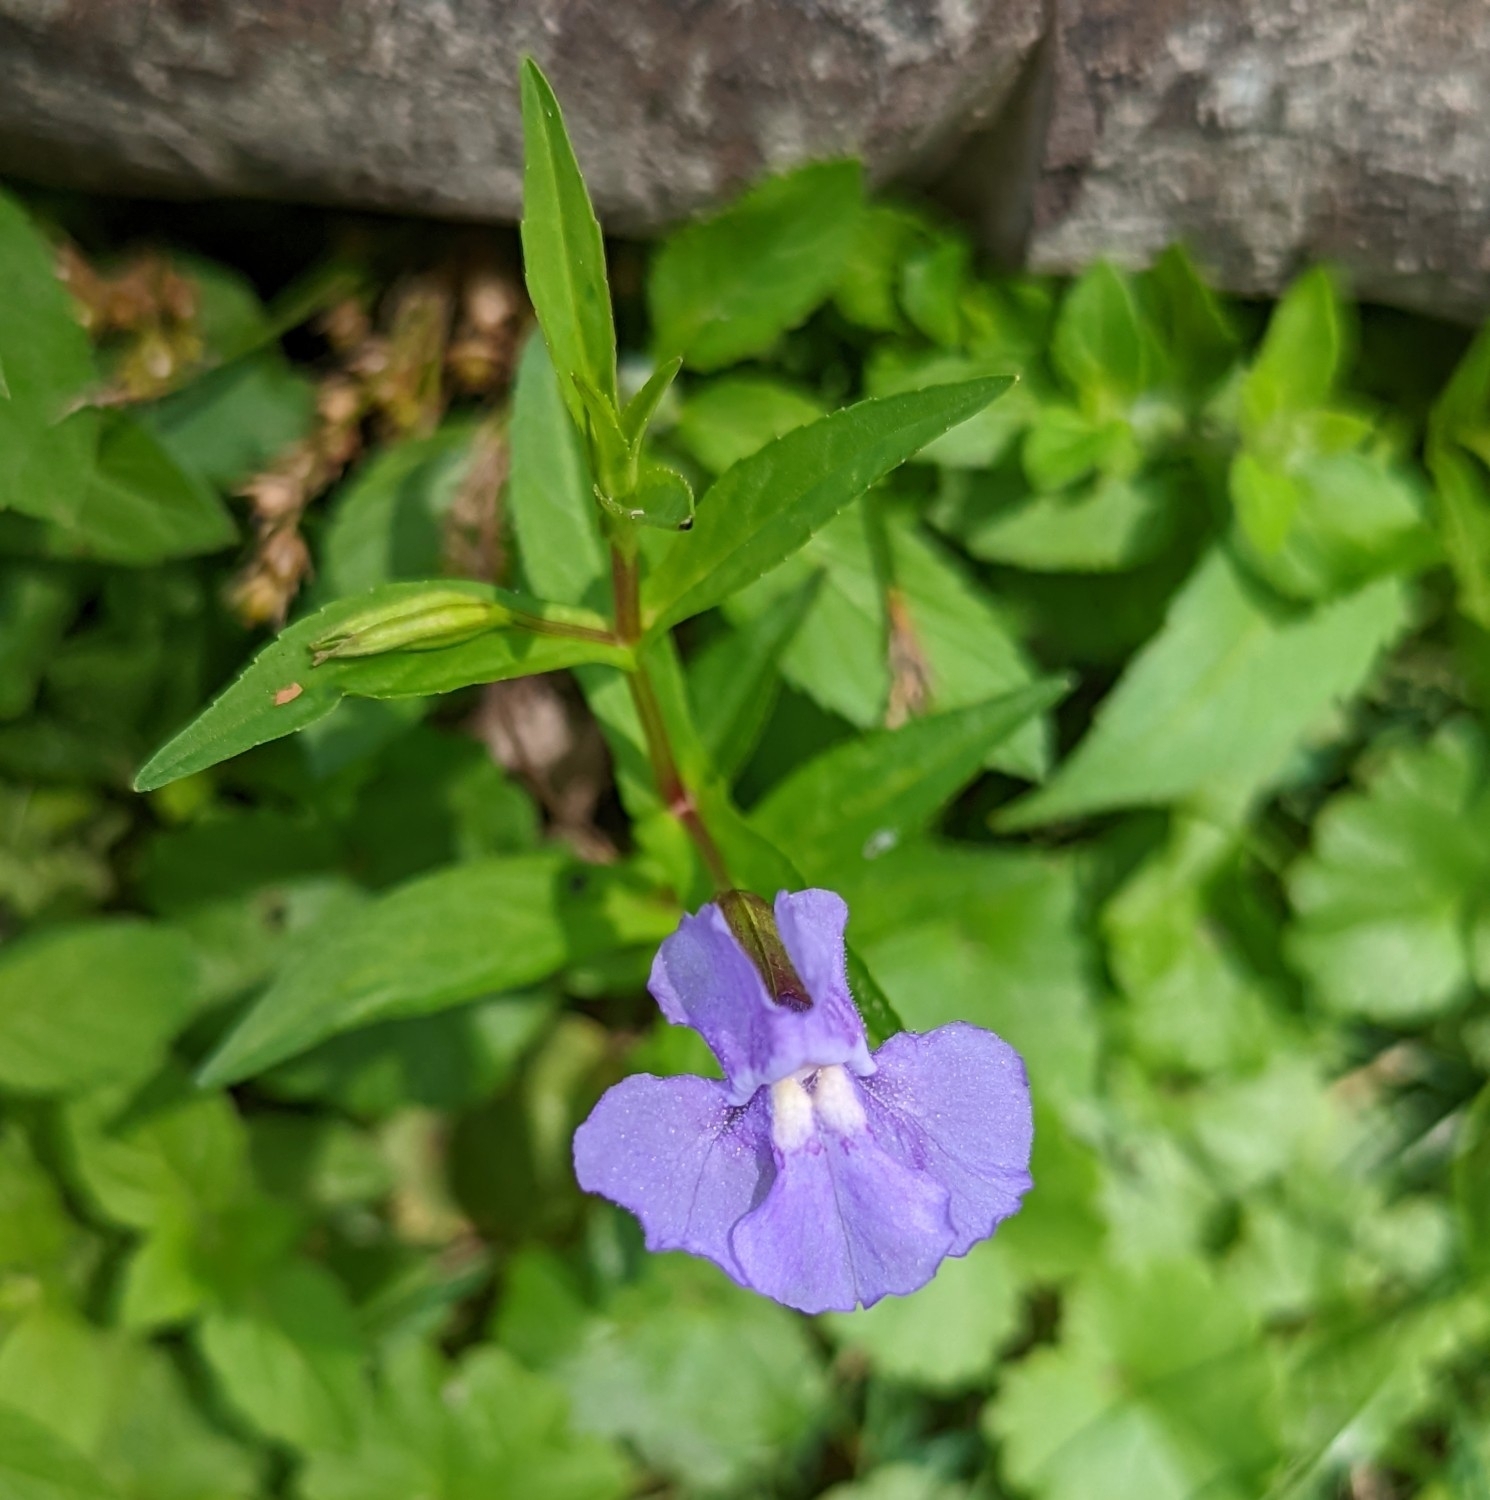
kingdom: Plantae
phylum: Tracheophyta
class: Magnoliopsida
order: Lamiales
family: Phrymaceae
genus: Mimulus
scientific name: Mimulus ringens
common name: Allegheny monkeyflower
